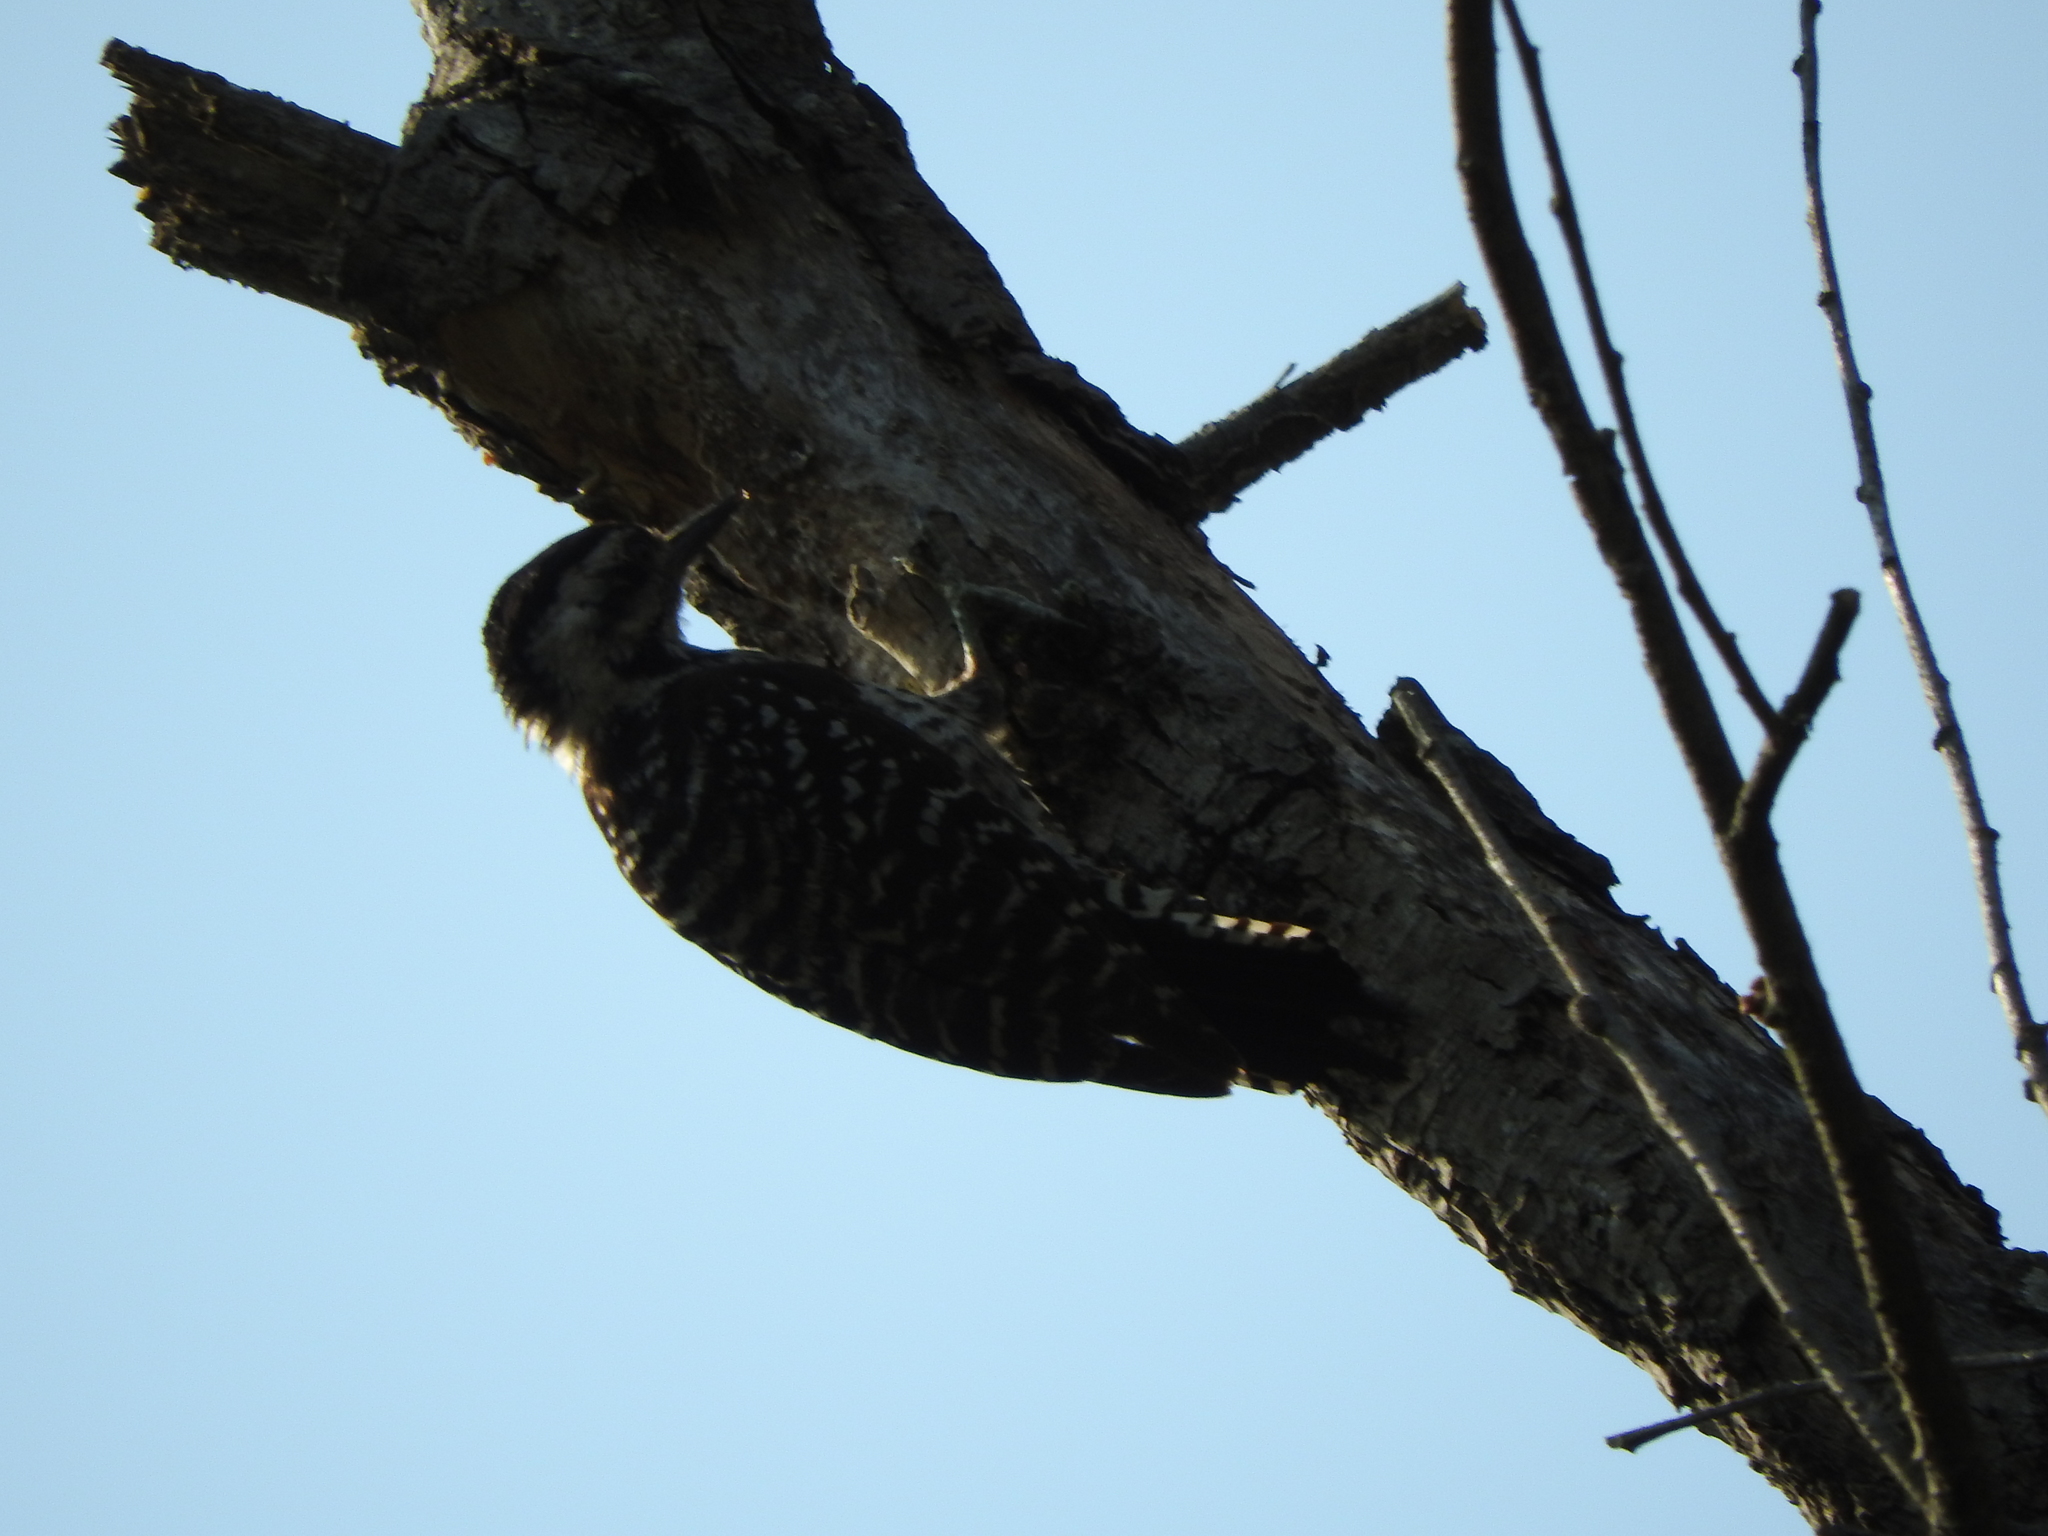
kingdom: Animalia
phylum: Chordata
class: Aves
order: Piciformes
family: Picidae
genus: Dryobates
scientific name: Dryobates scalaris
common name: Ladder-backed woodpecker
